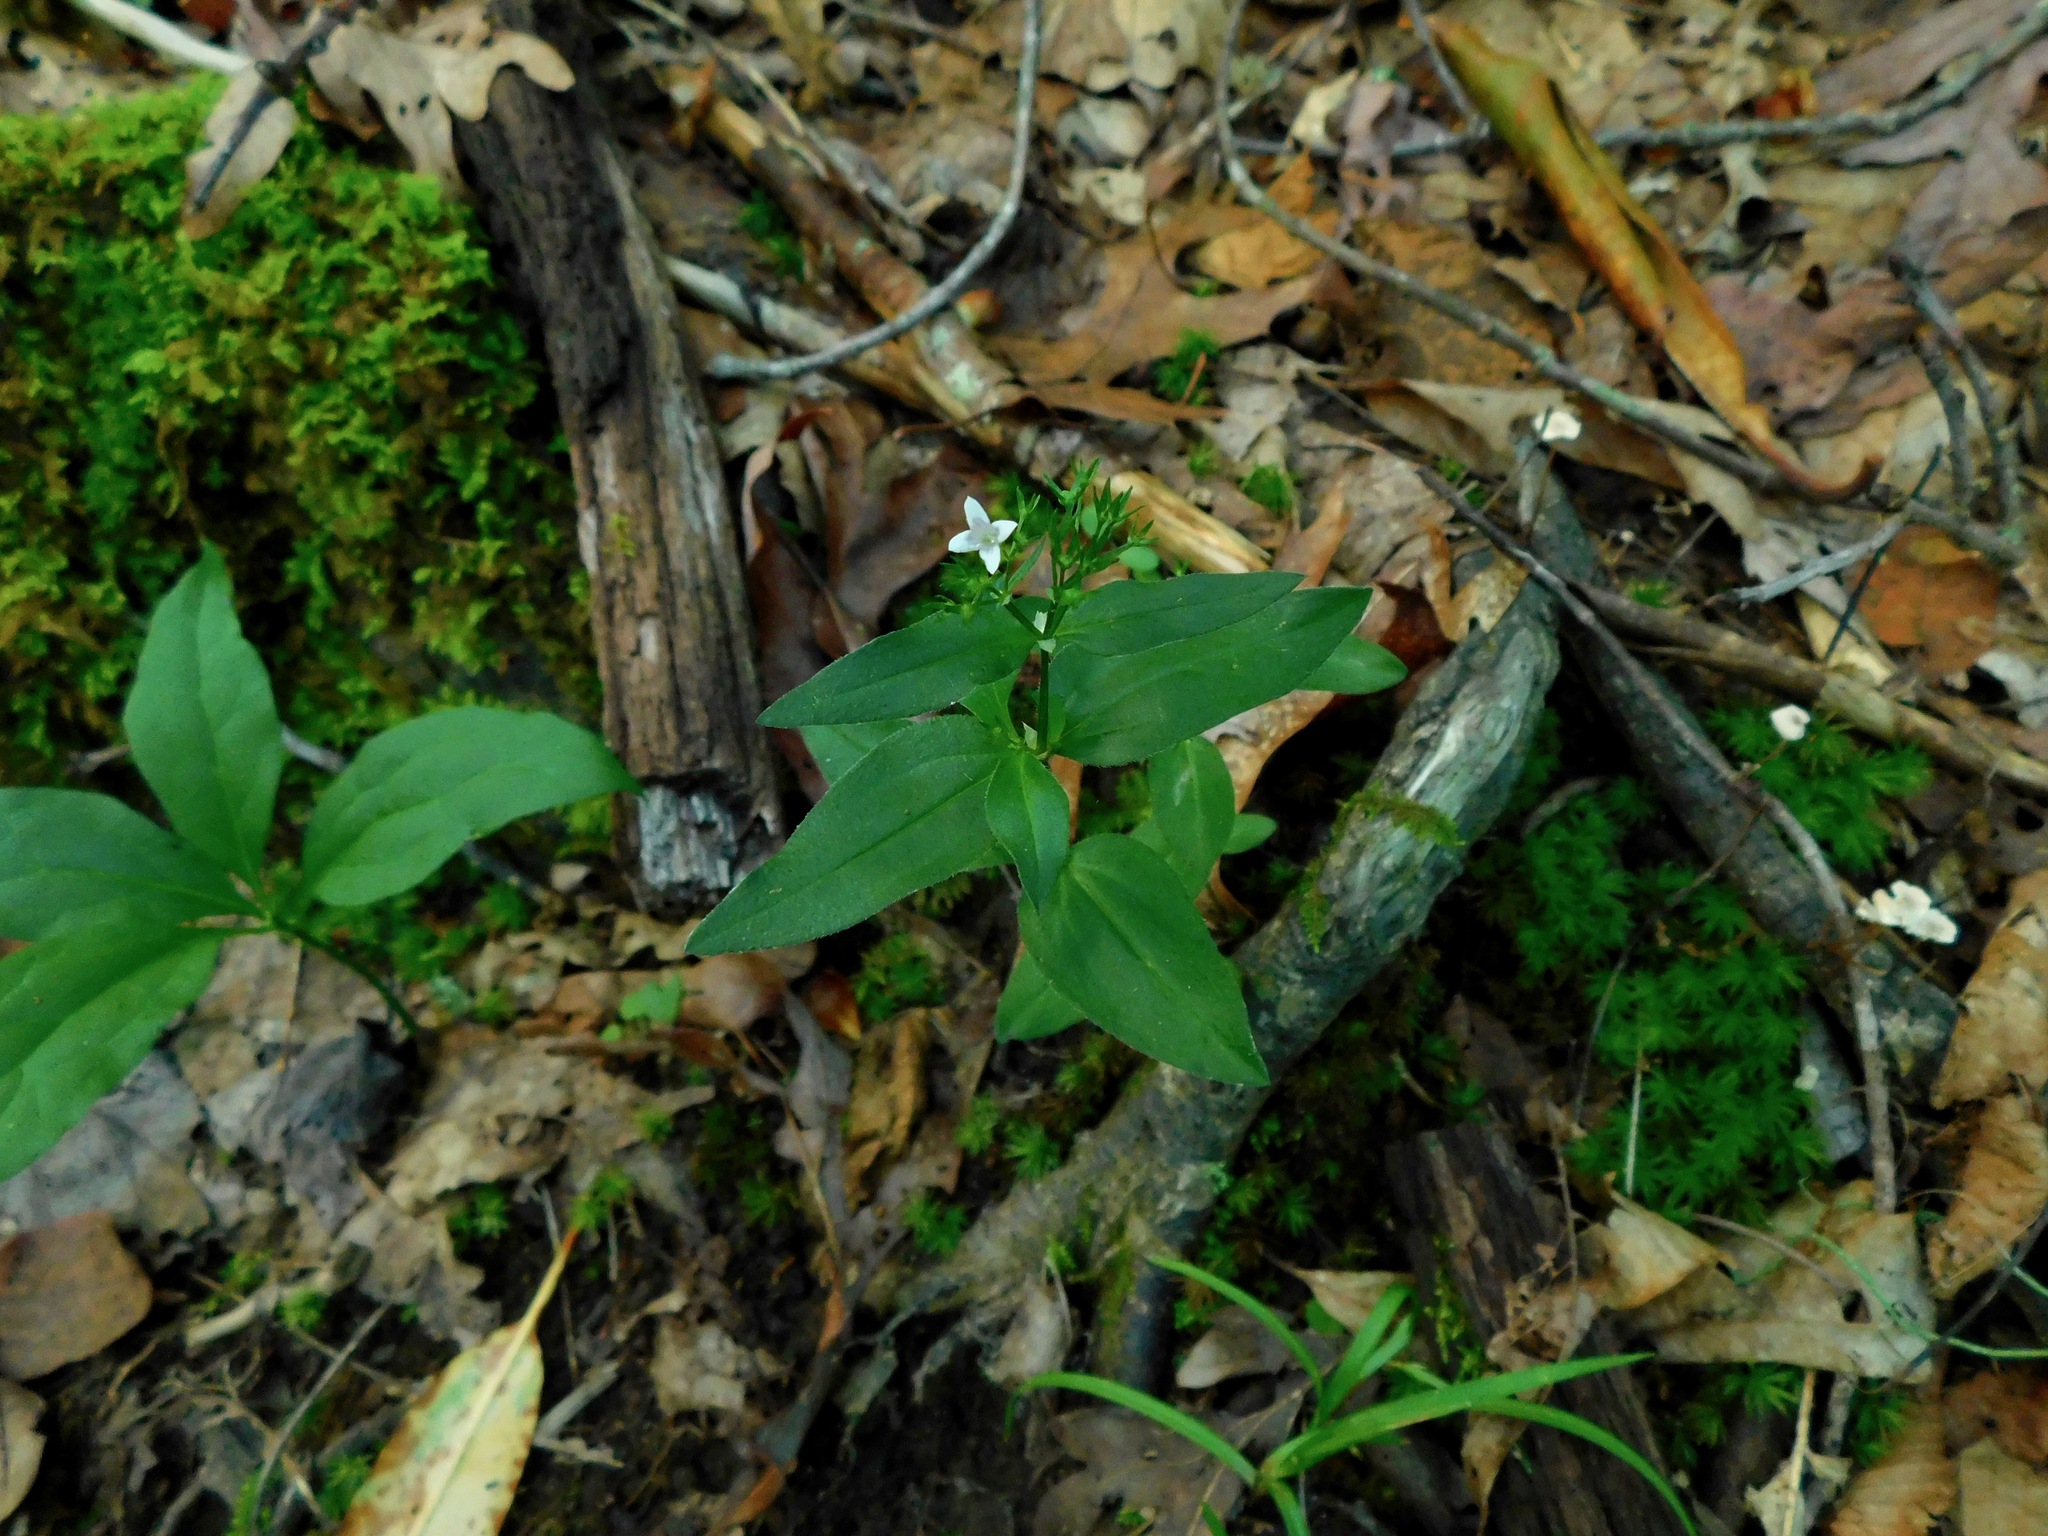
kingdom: Plantae
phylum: Tracheophyta
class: Magnoliopsida
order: Gentianales
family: Rubiaceae
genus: Houstonia
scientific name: Houstonia purpurea
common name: Summer bluet
